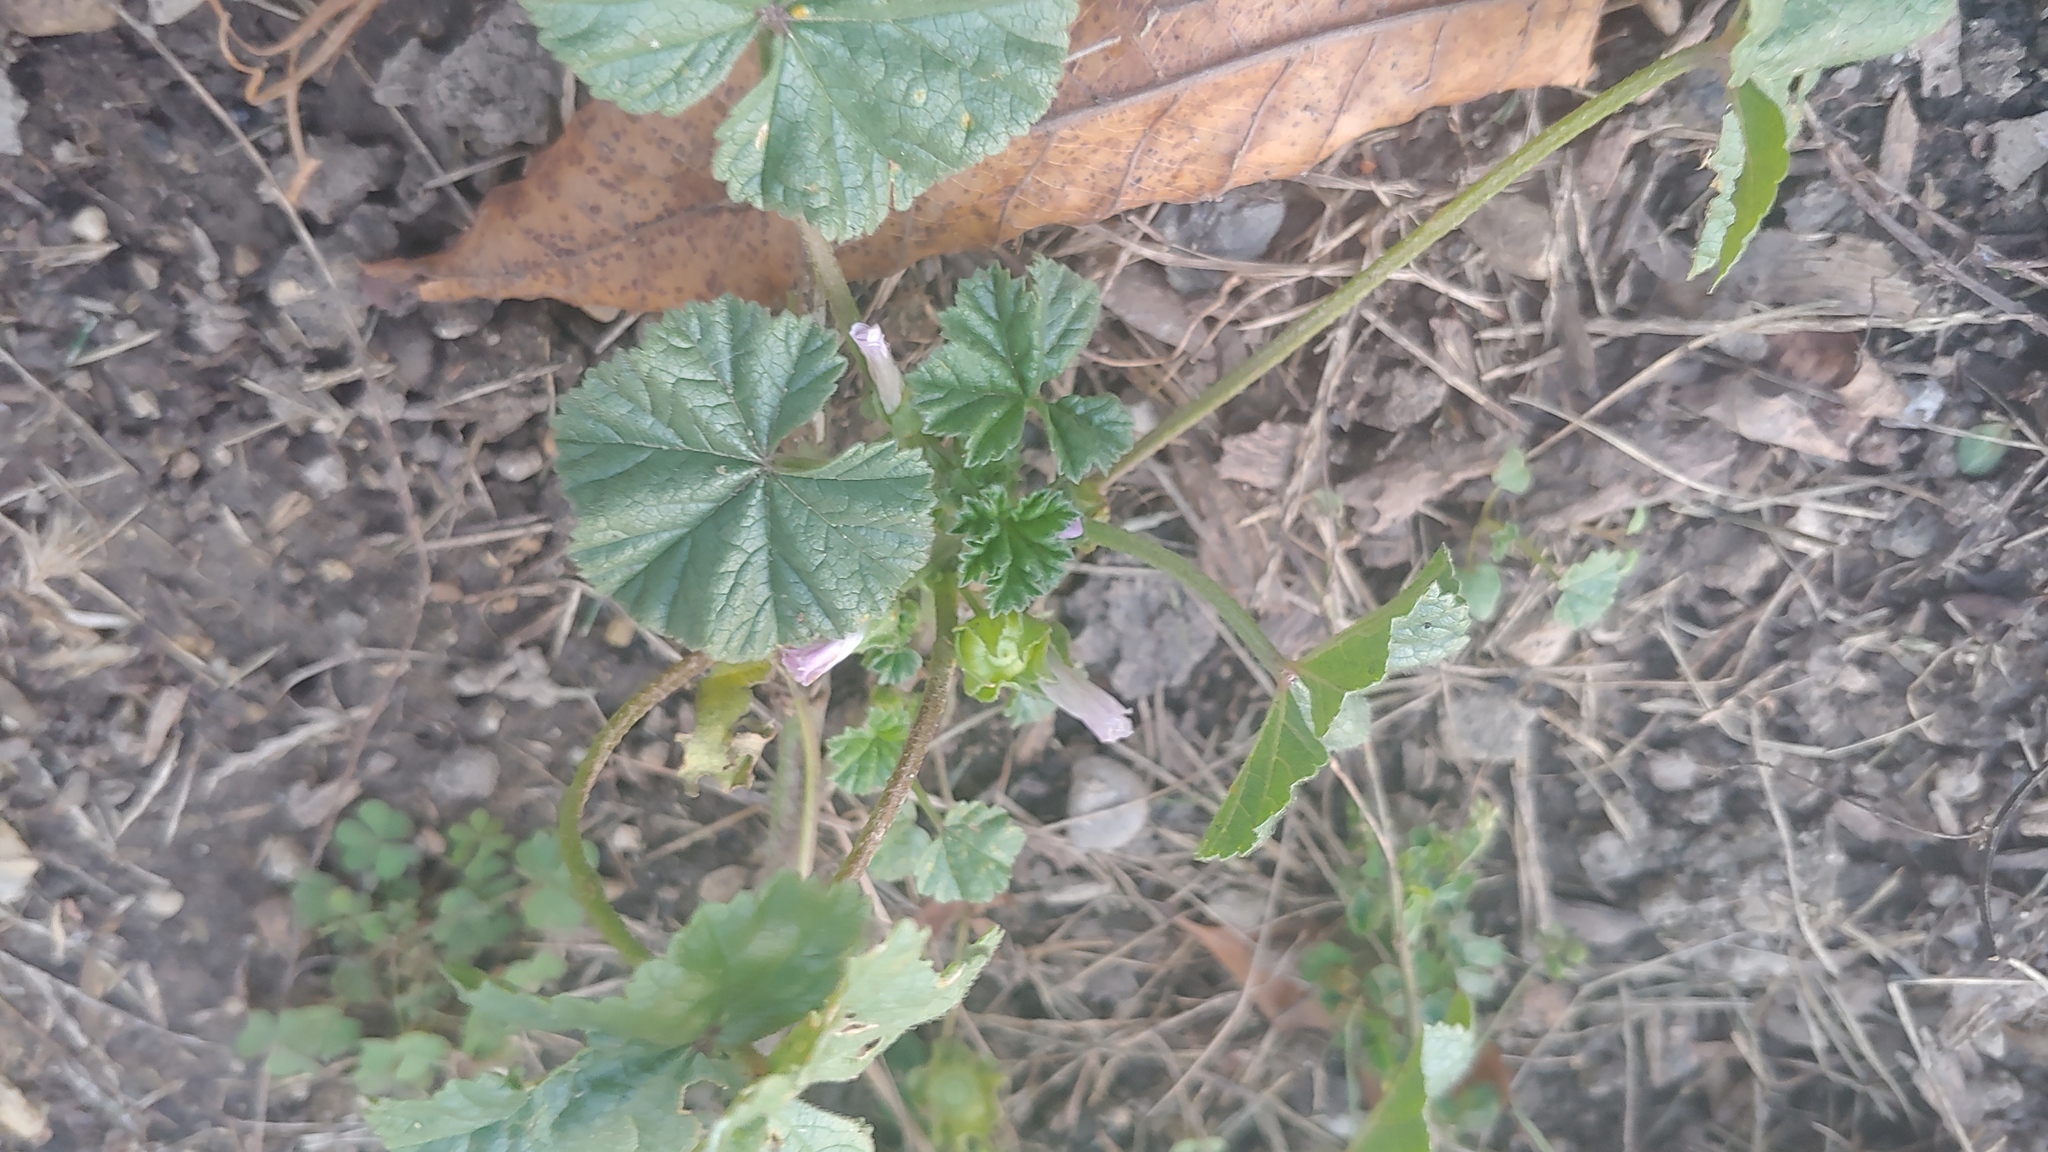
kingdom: Plantae
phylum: Tracheophyta
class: Magnoliopsida
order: Malvales
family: Malvaceae
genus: Malva
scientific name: Malva neglecta
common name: Common mallow
